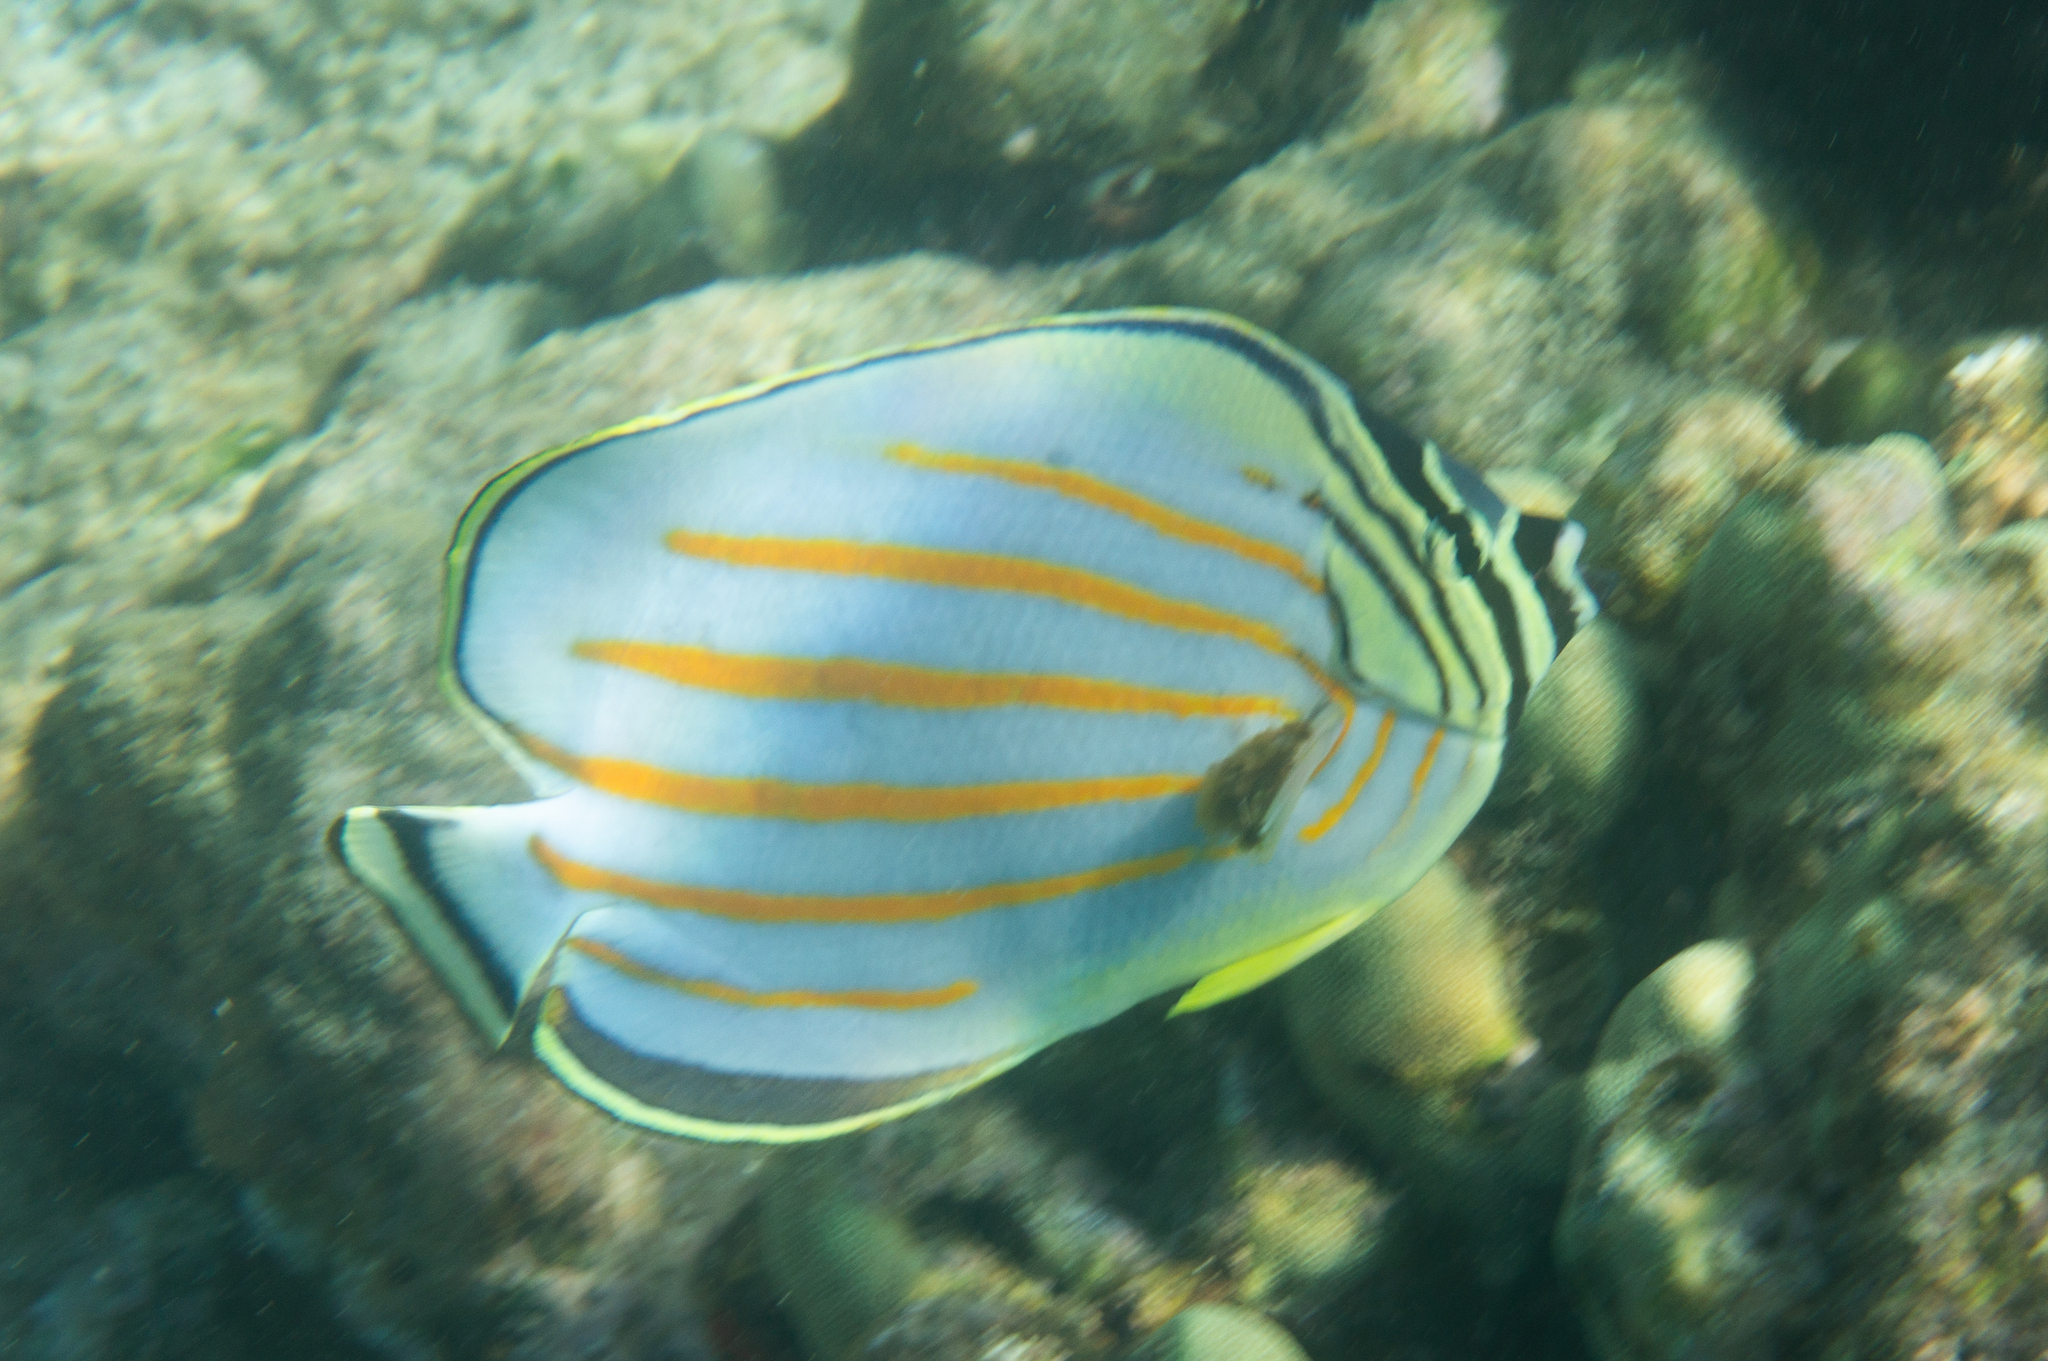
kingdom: Animalia
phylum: Chordata
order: Perciformes
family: Chaetodontidae
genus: Chaetodon
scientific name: Chaetodon ornatissimus
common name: Ornate butterflyfish
